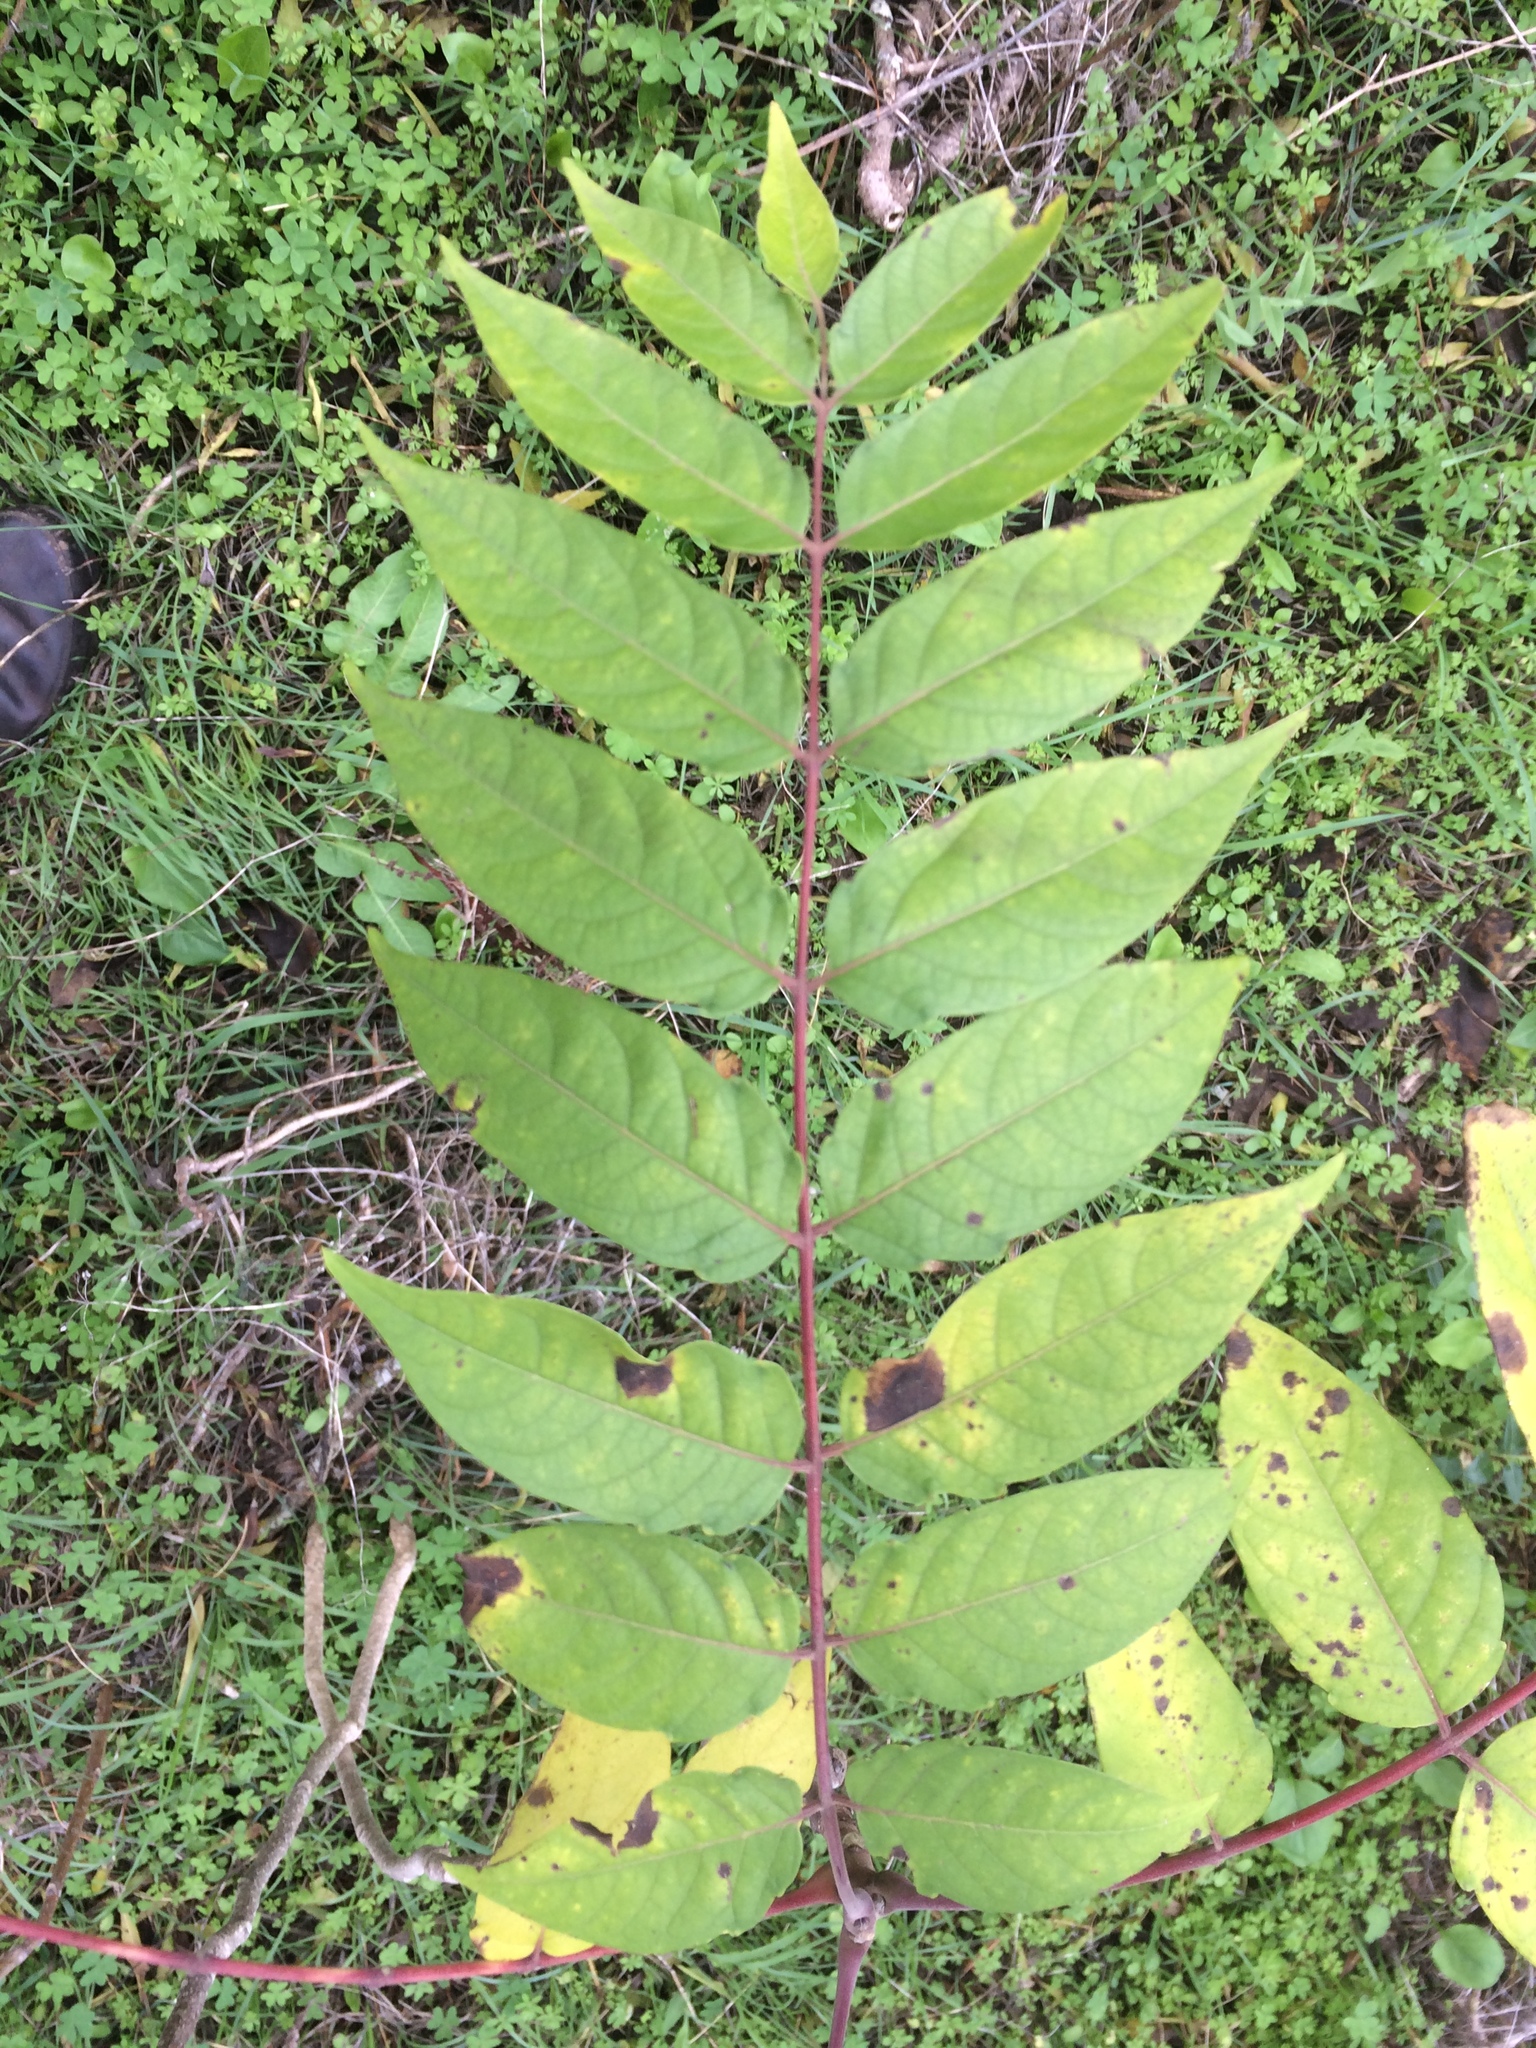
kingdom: Plantae
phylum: Tracheophyta
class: Magnoliopsida
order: Sapindales
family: Simaroubaceae
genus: Ailanthus
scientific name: Ailanthus altissima
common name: Tree-of-heaven
